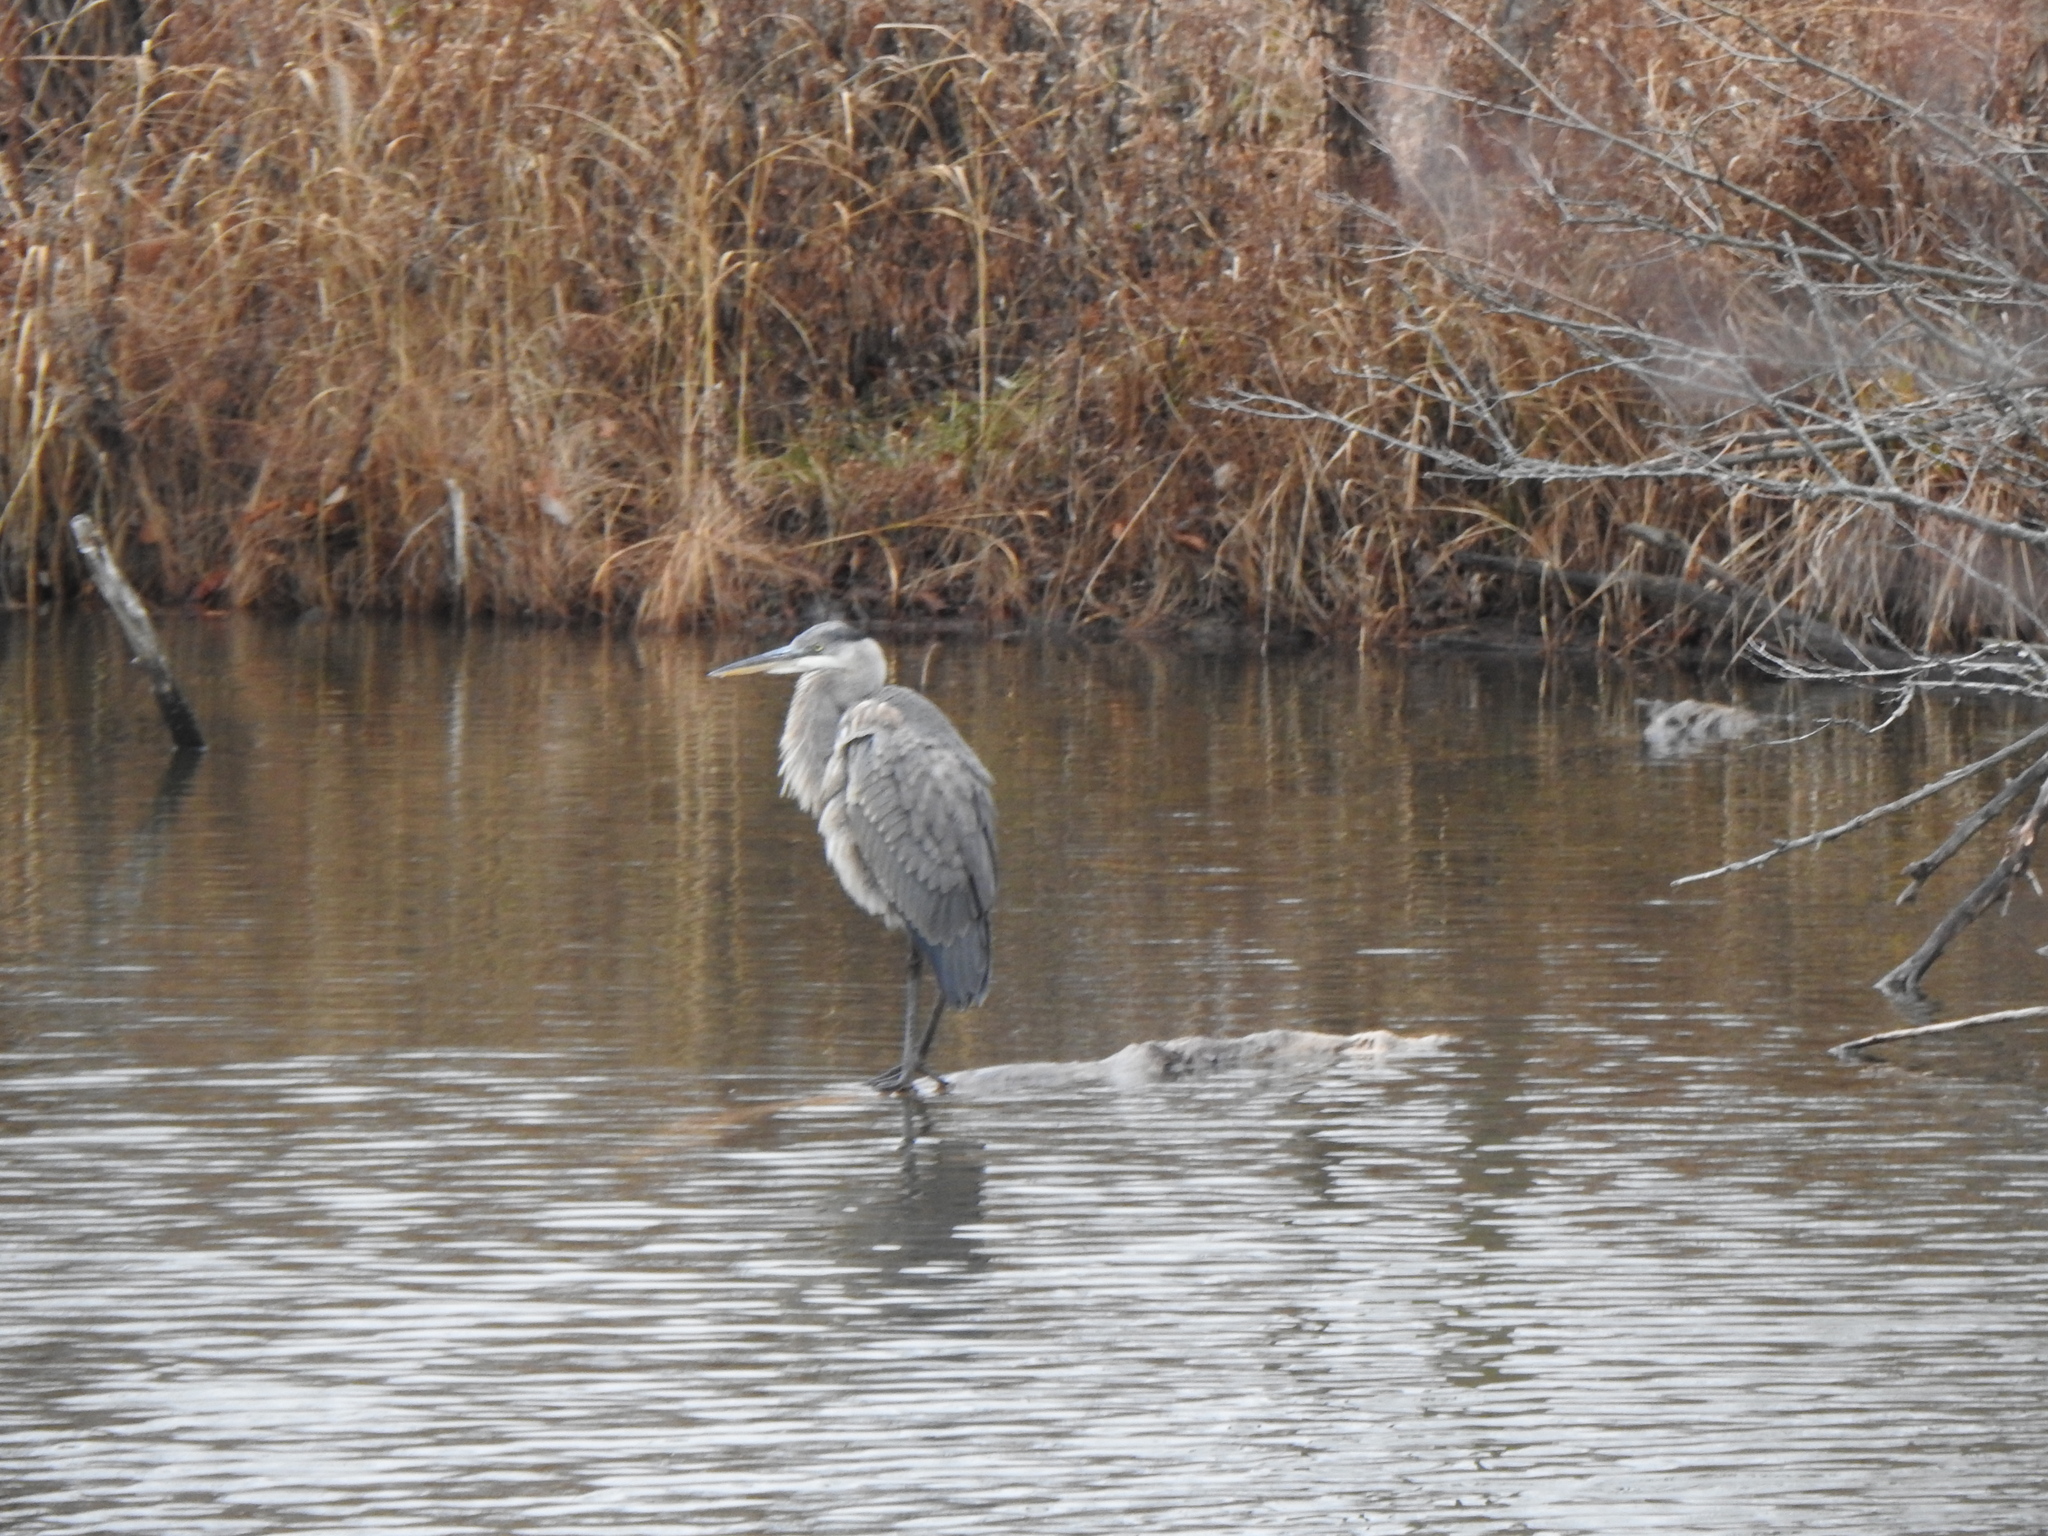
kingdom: Animalia
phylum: Chordata
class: Aves
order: Pelecaniformes
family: Ardeidae
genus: Ardea
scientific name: Ardea herodias
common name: Great blue heron
